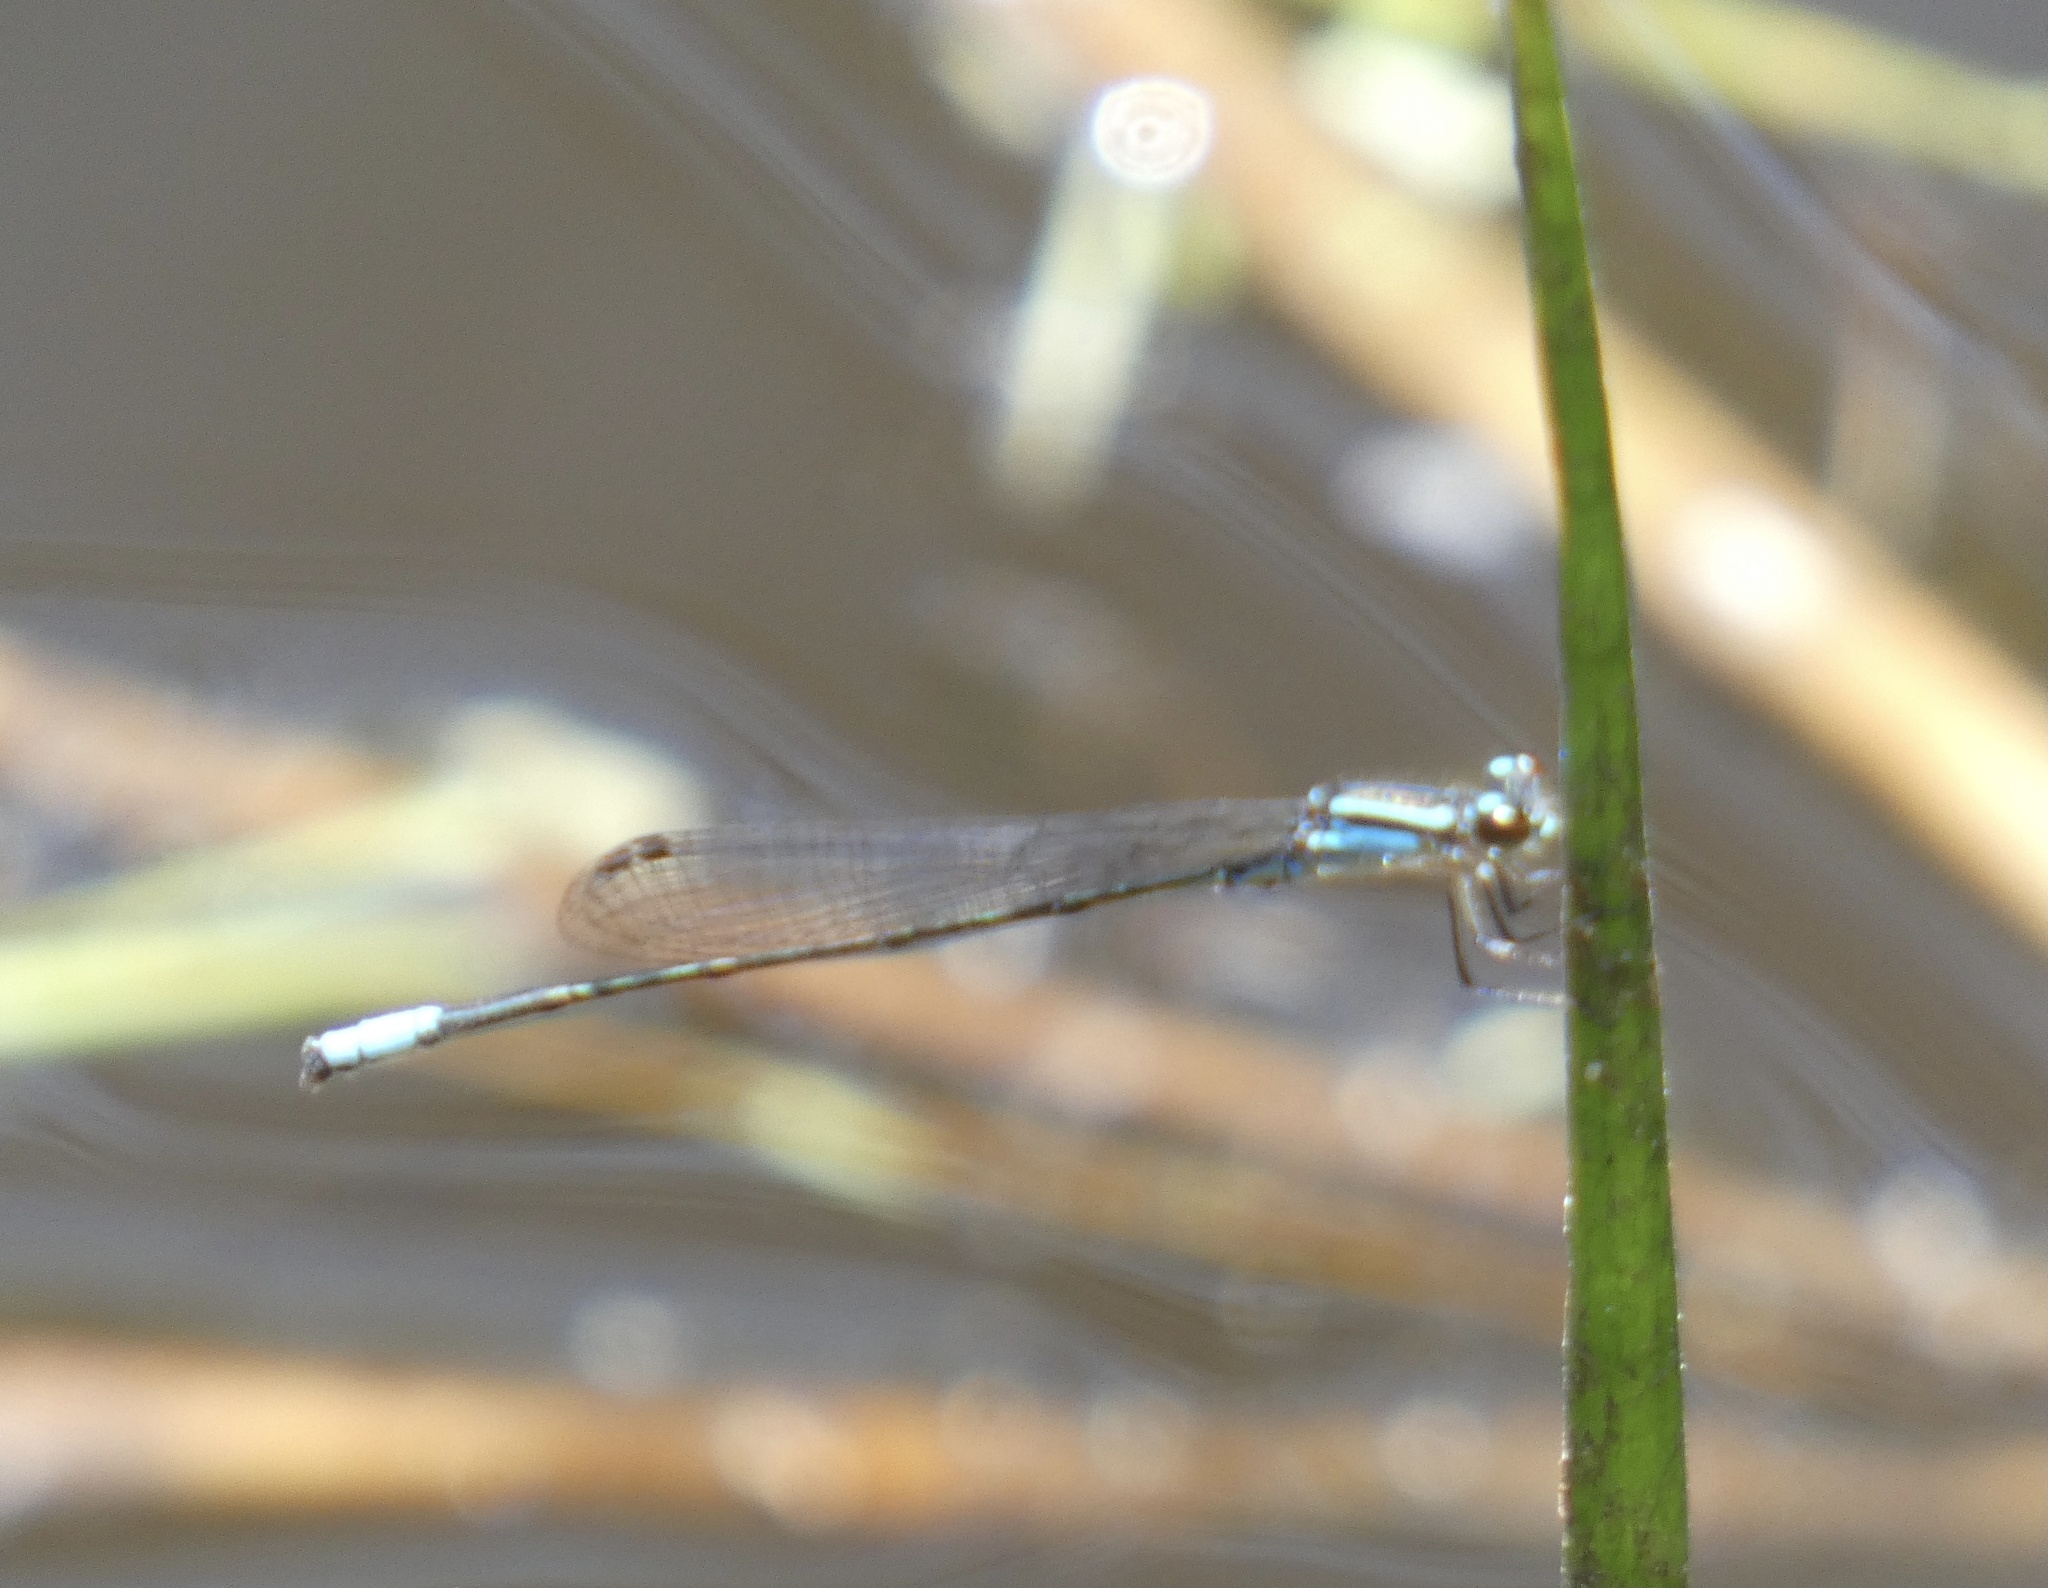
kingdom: Animalia
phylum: Arthropoda
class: Insecta
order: Odonata
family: Coenagrionidae
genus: Acanthagrion
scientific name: Acanthagrion gracile
